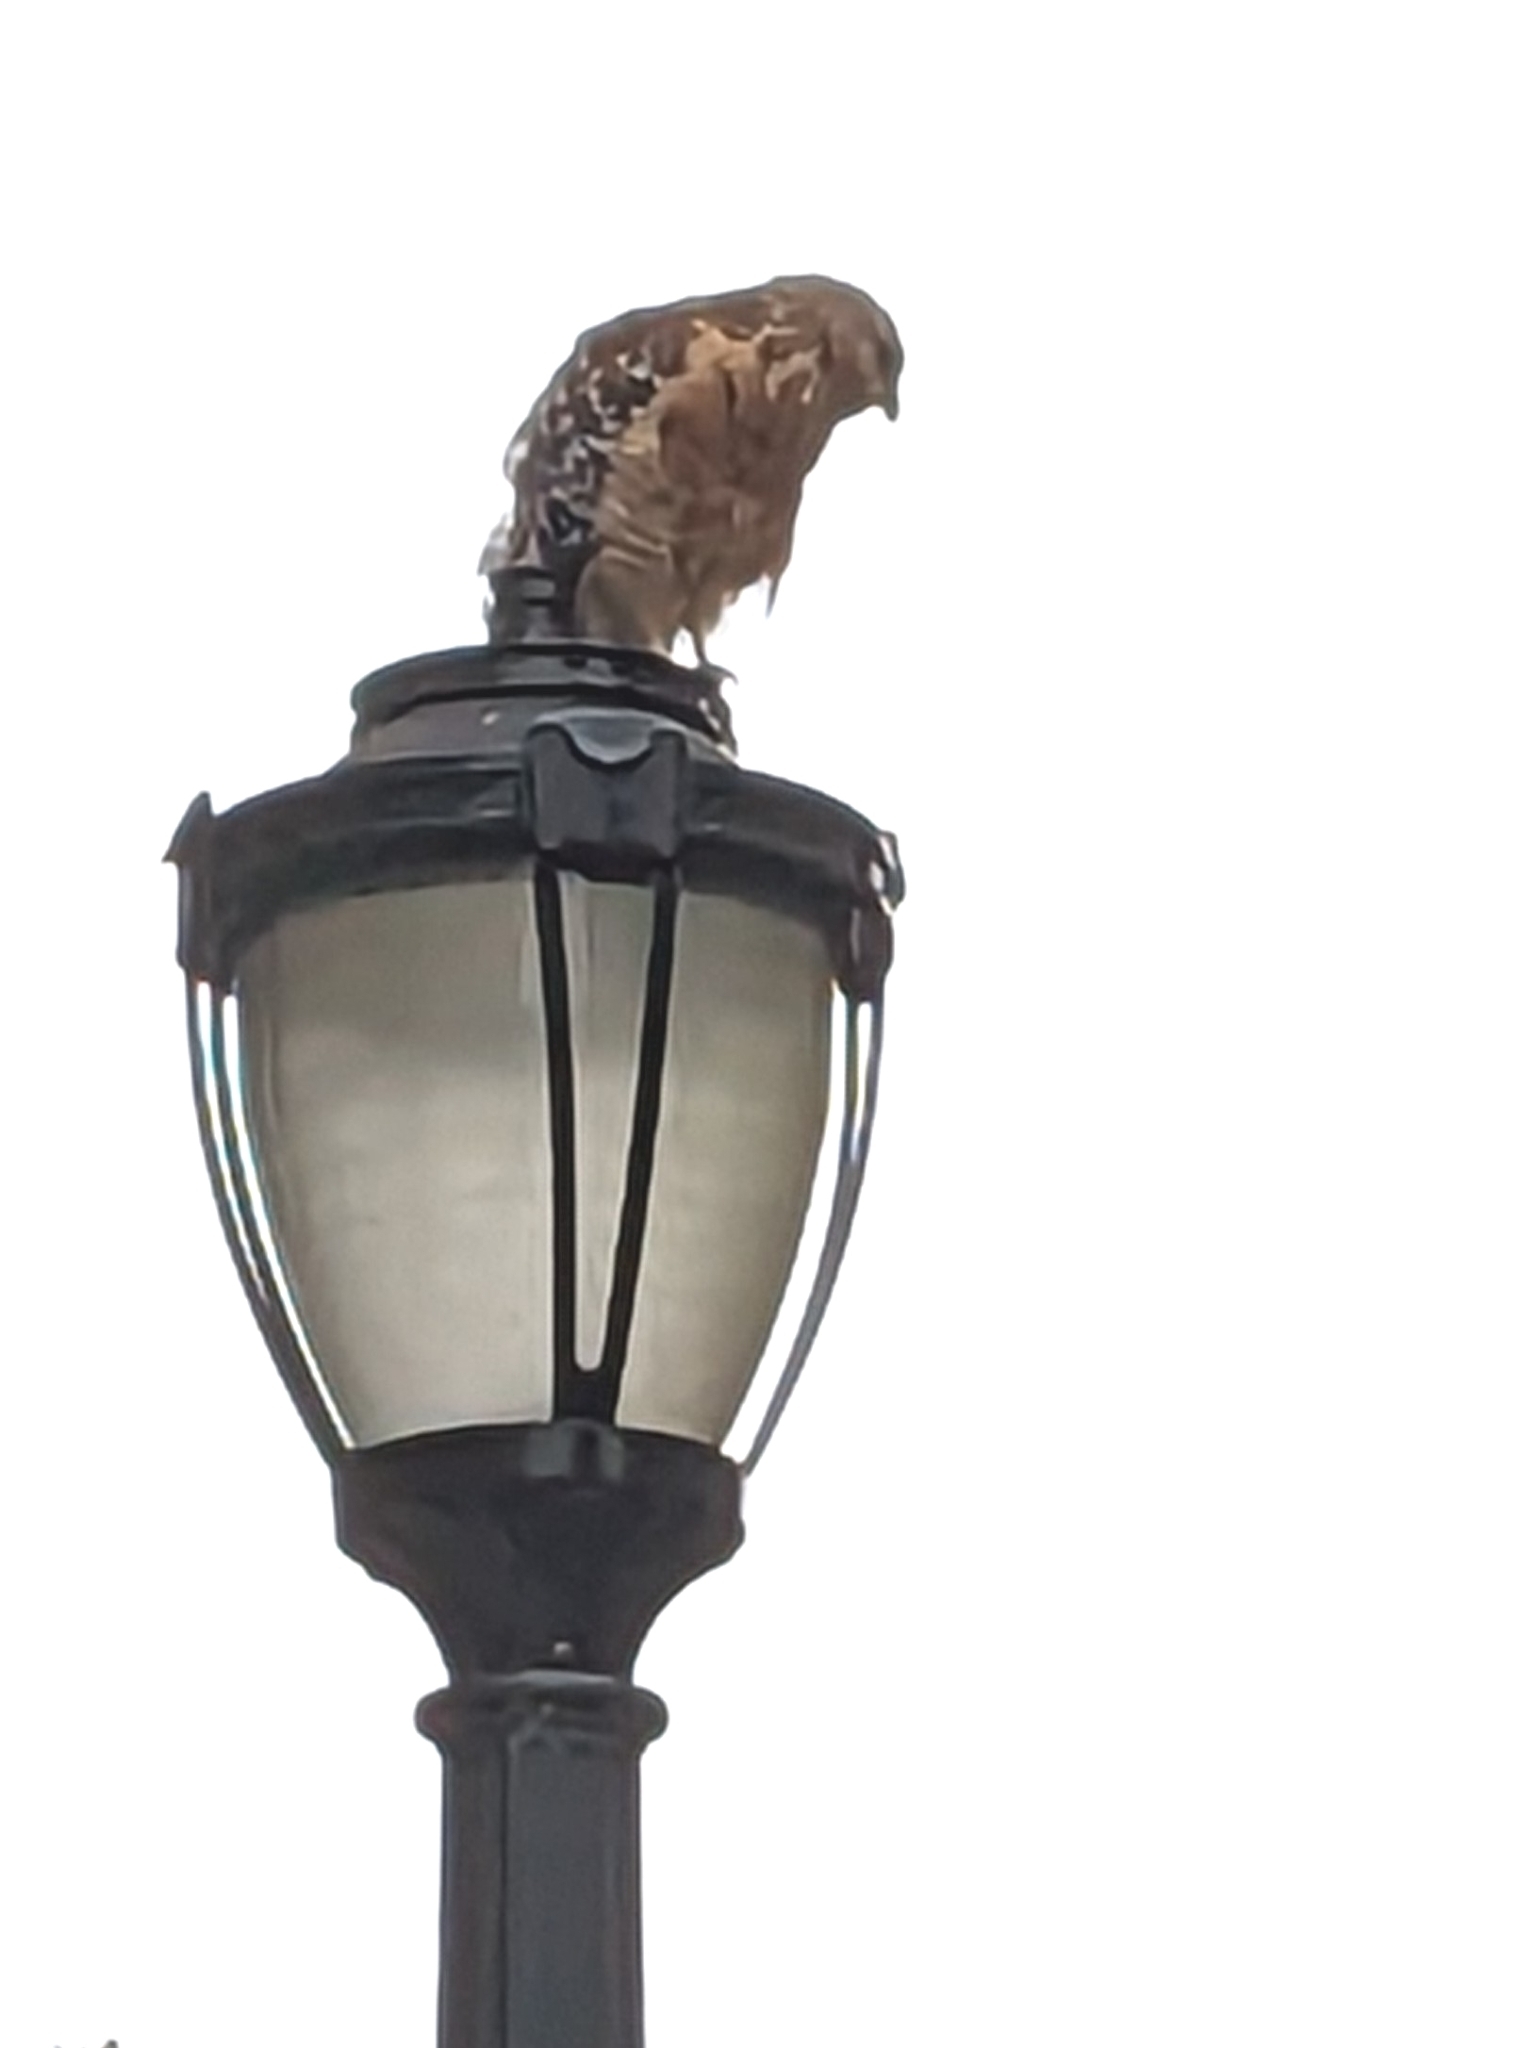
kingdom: Animalia
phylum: Chordata
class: Aves
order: Accipitriformes
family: Accipitridae
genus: Buteo
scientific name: Buteo lineatus
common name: Red-shouldered hawk
